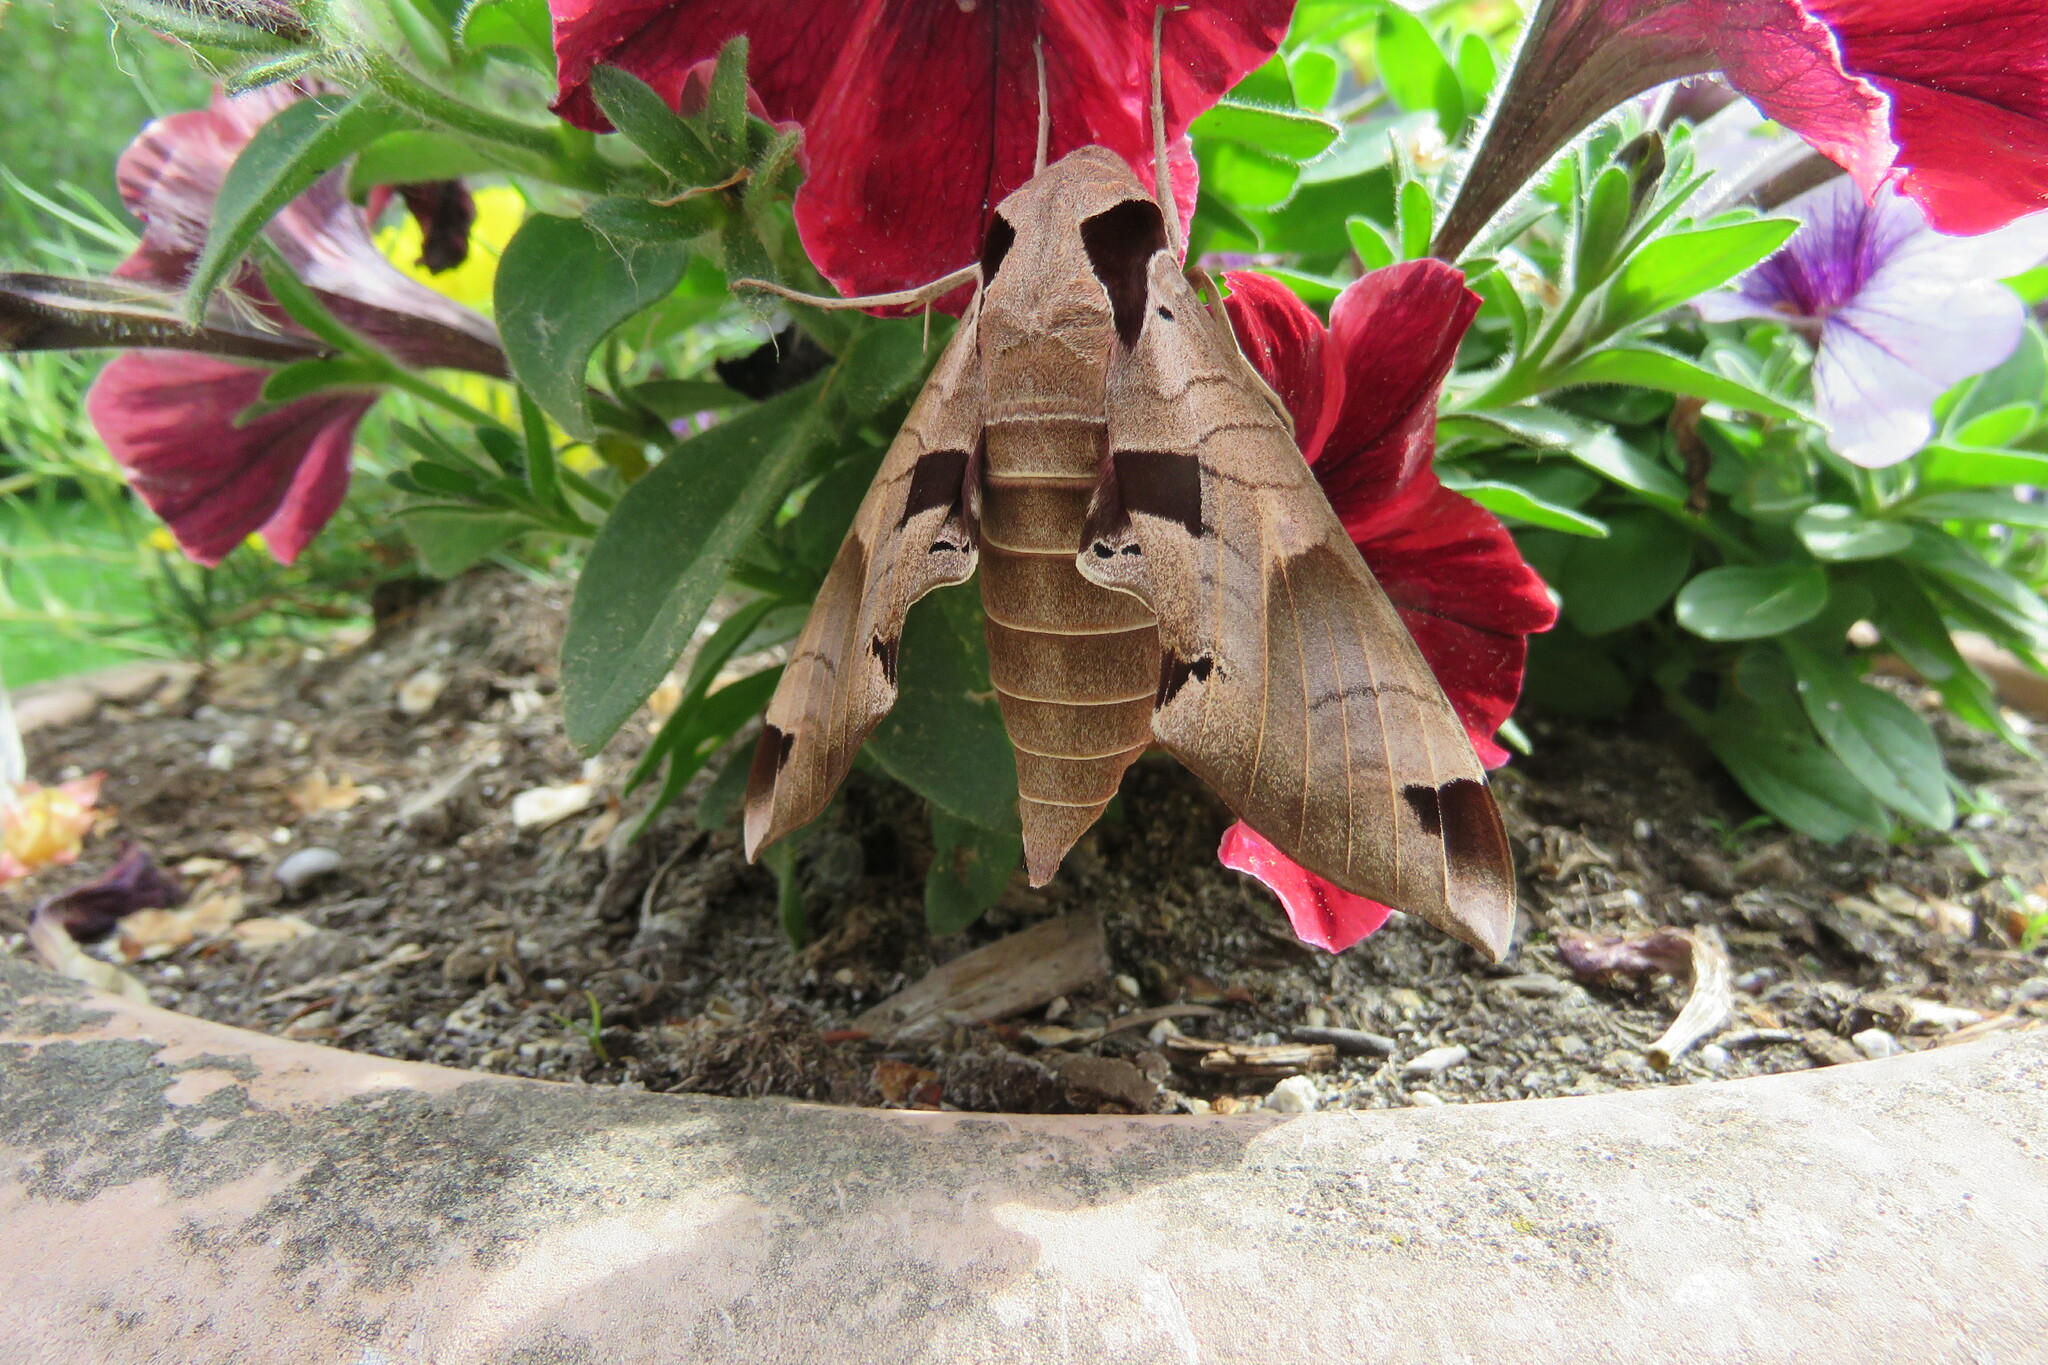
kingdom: Animalia
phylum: Arthropoda
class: Insecta
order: Lepidoptera
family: Sphingidae
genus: Eumorpha
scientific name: Eumorpha achemon
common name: Achemon sphinx
